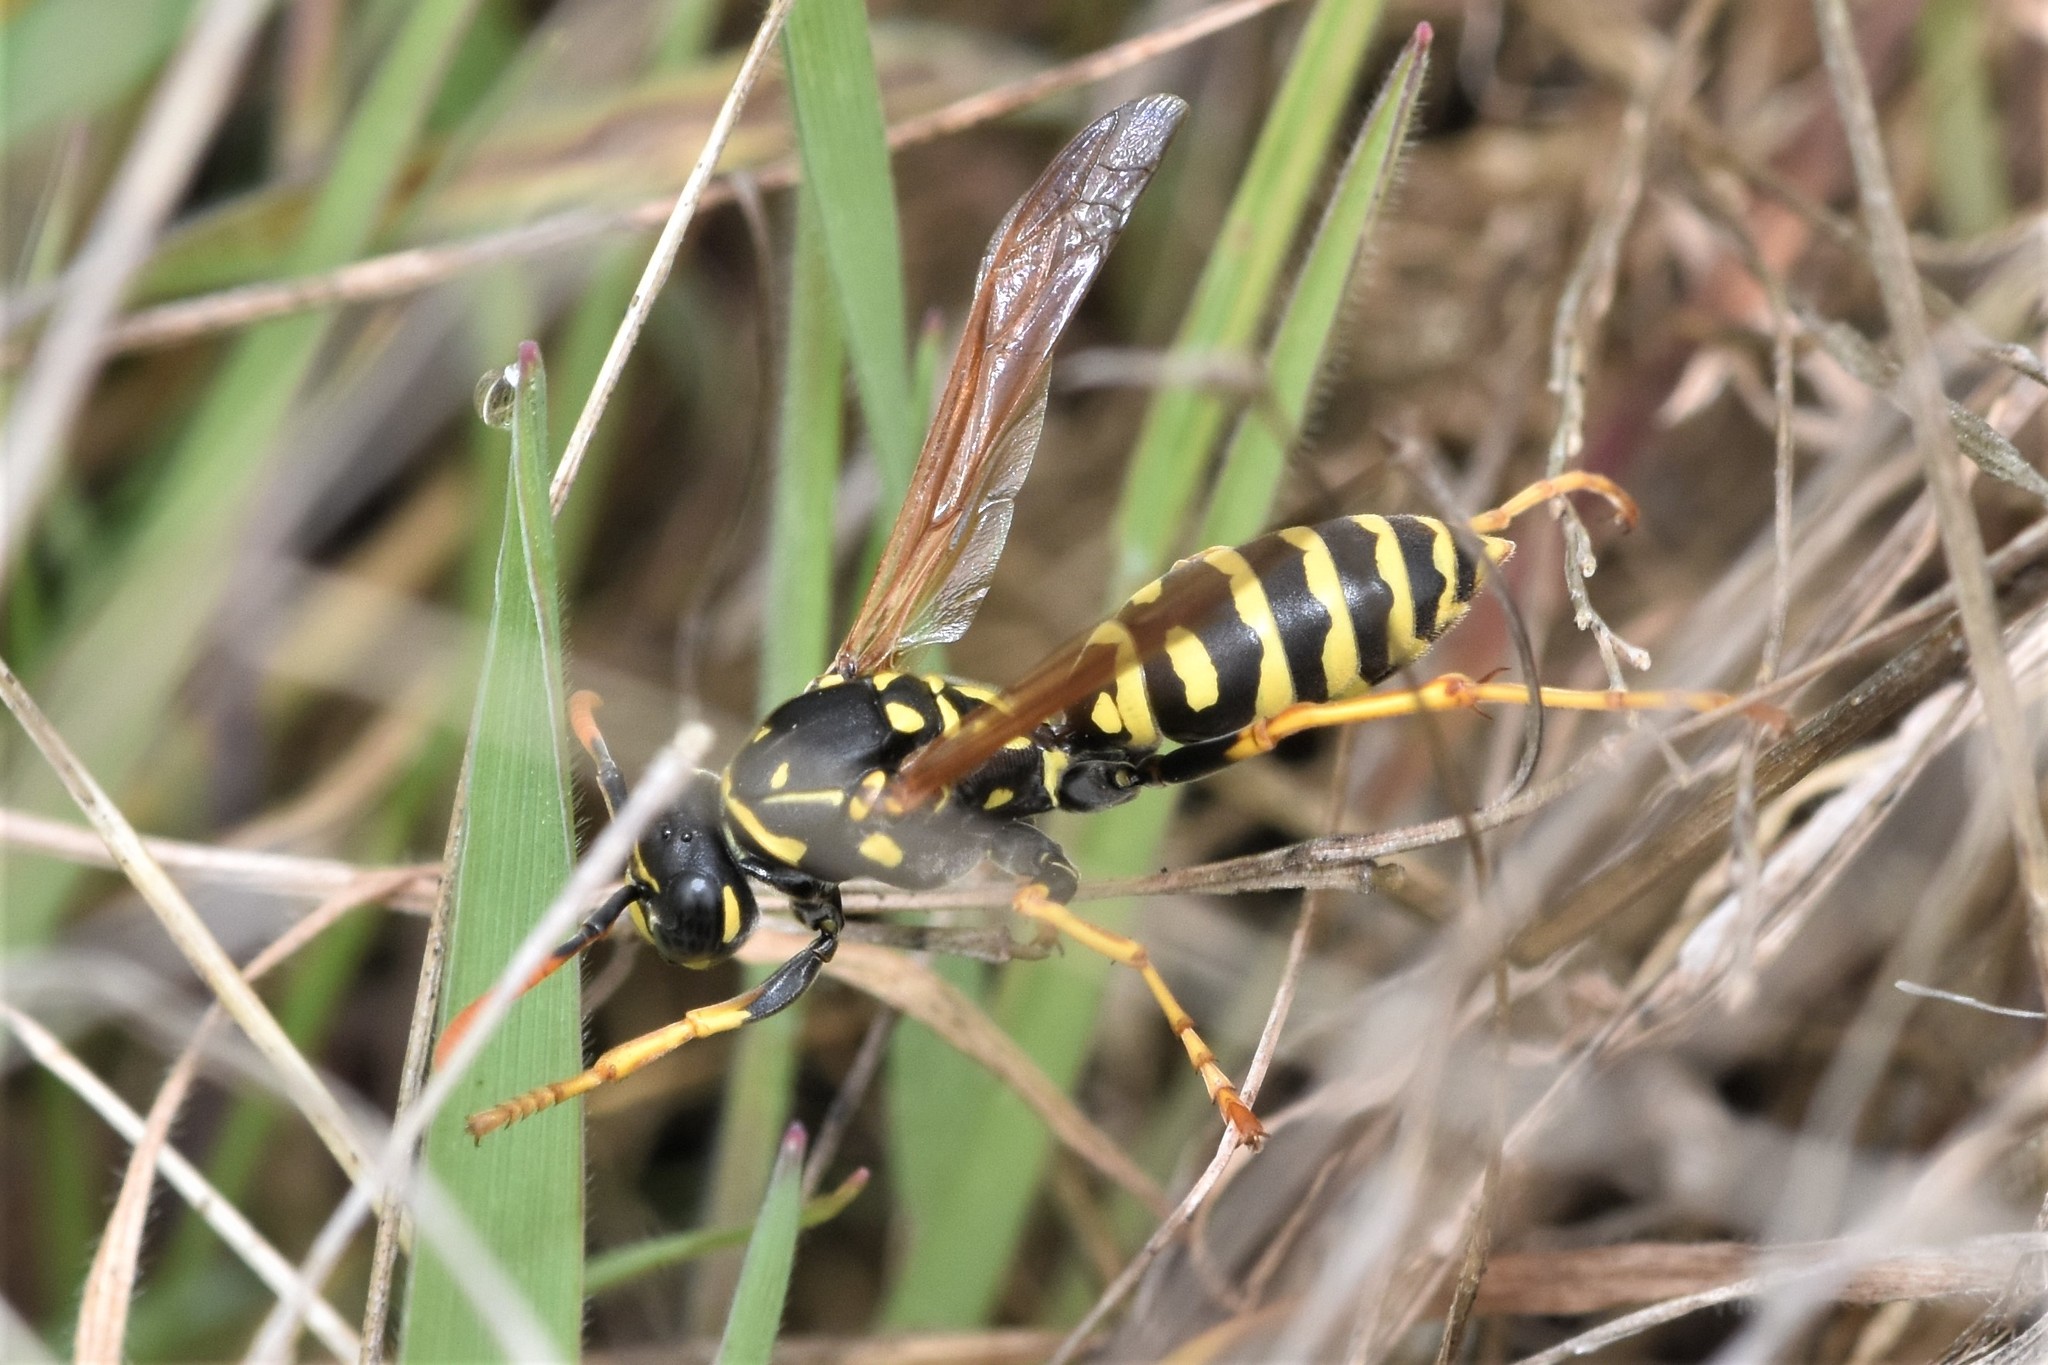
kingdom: Animalia
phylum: Arthropoda
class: Insecta
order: Hymenoptera
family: Eumenidae
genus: Polistes
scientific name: Polistes dominula
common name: Paper wasp
